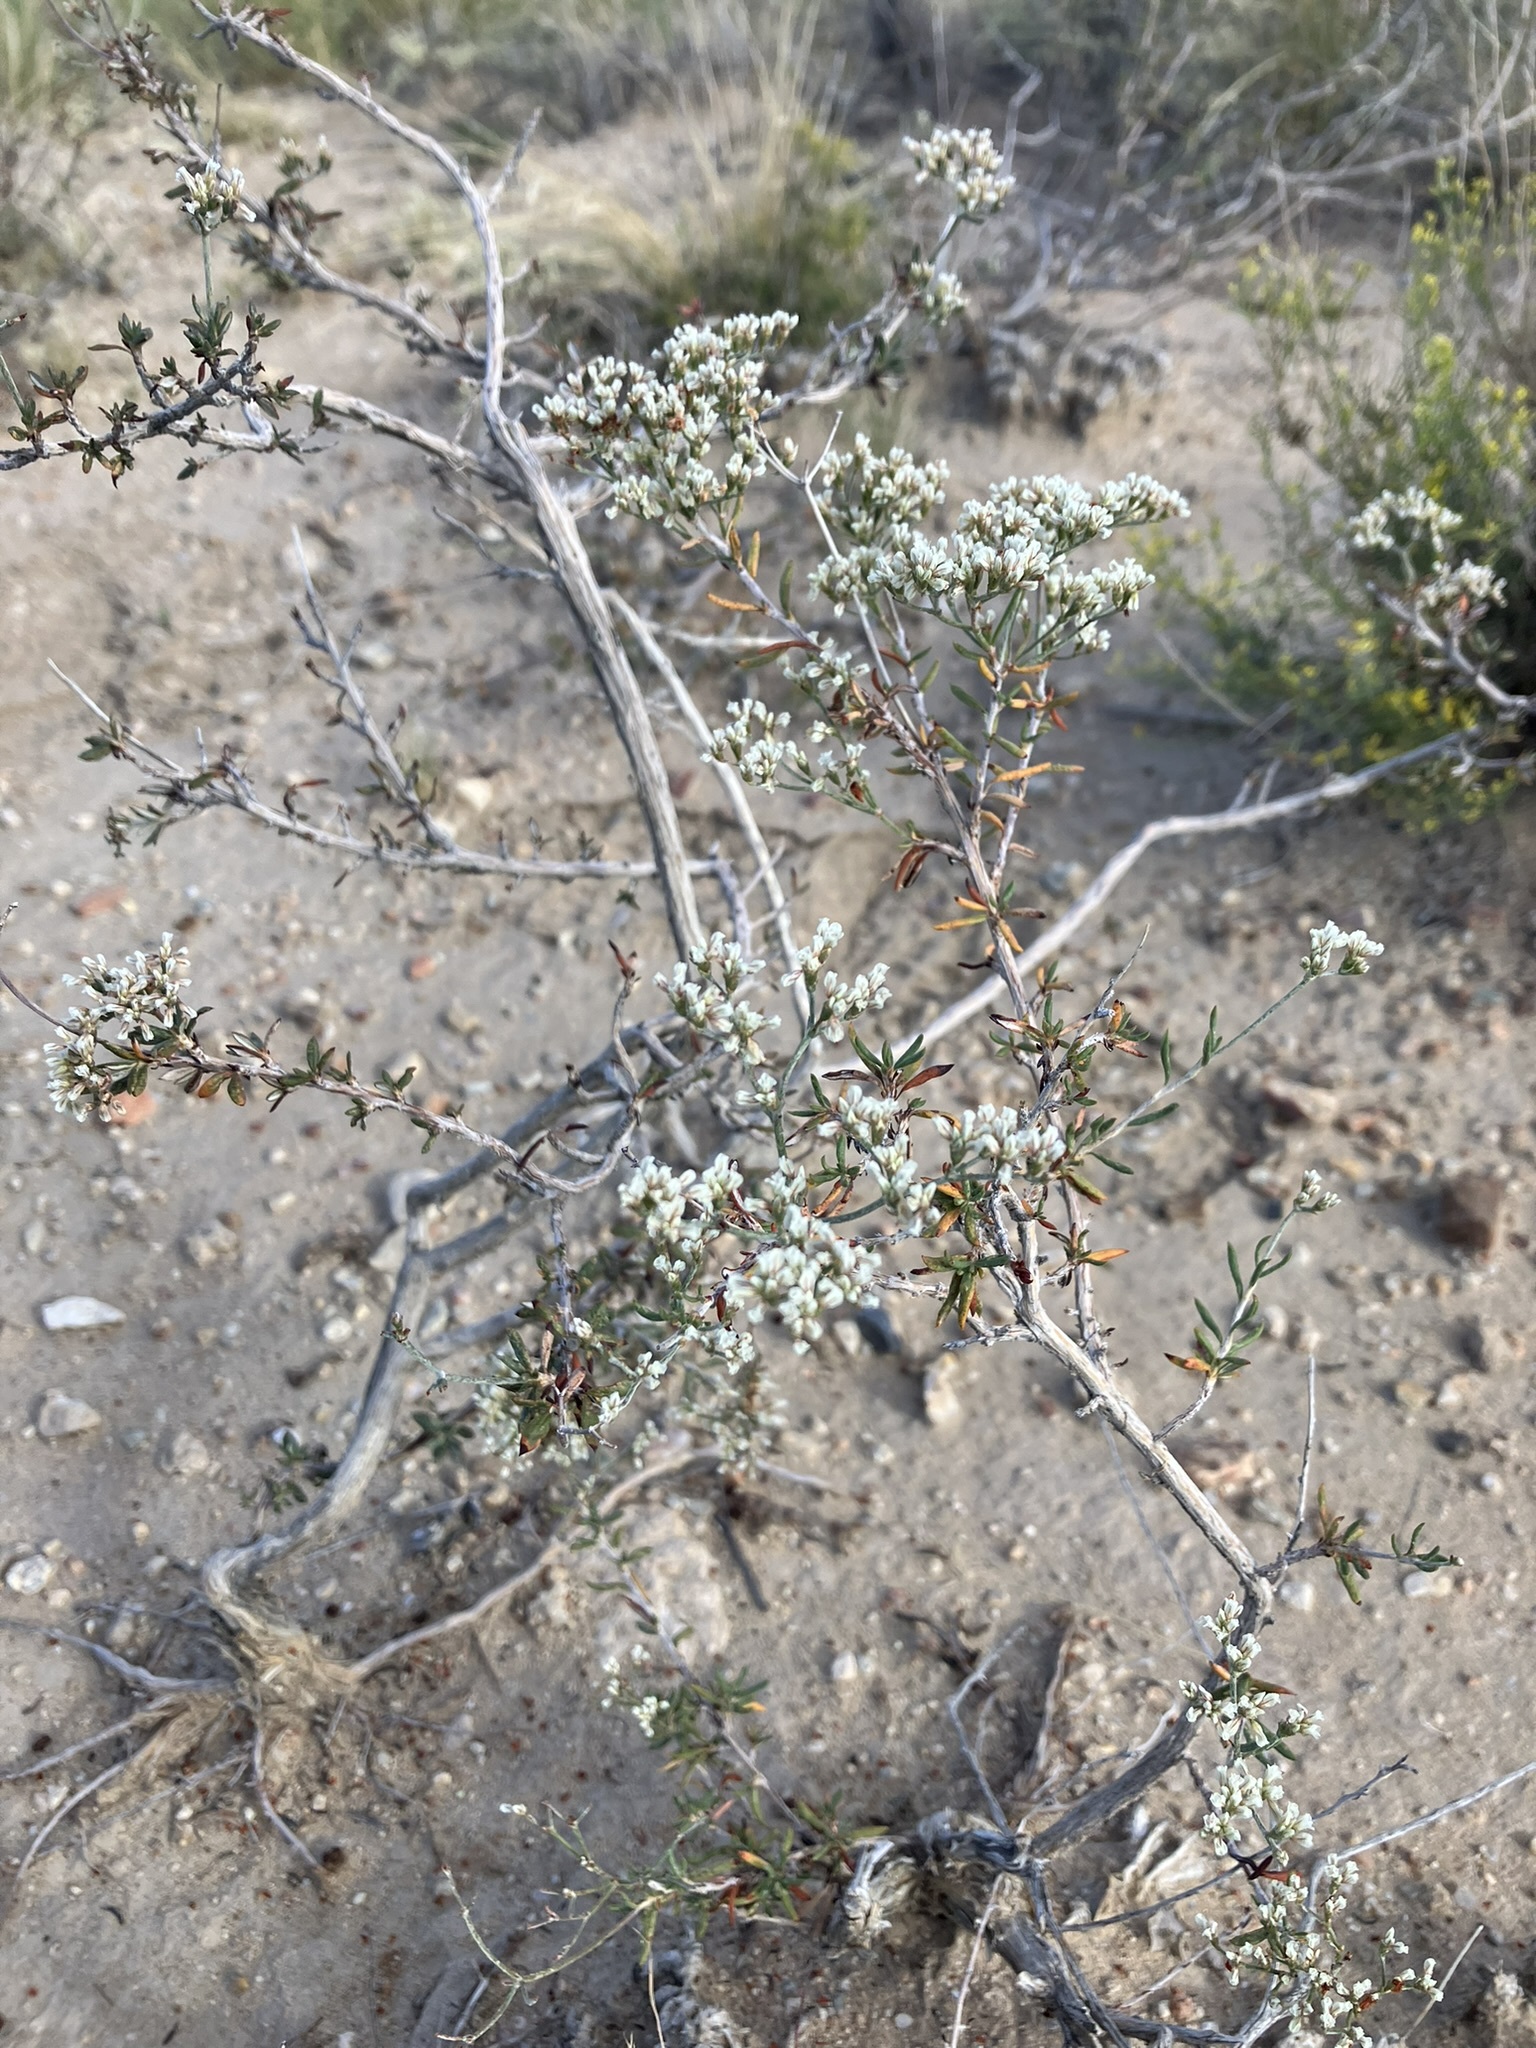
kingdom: Plantae
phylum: Tracheophyta
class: Magnoliopsida
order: Caryophyllales
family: Polygonaceae
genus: Eriogonum
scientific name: Eriogonum microtheca
